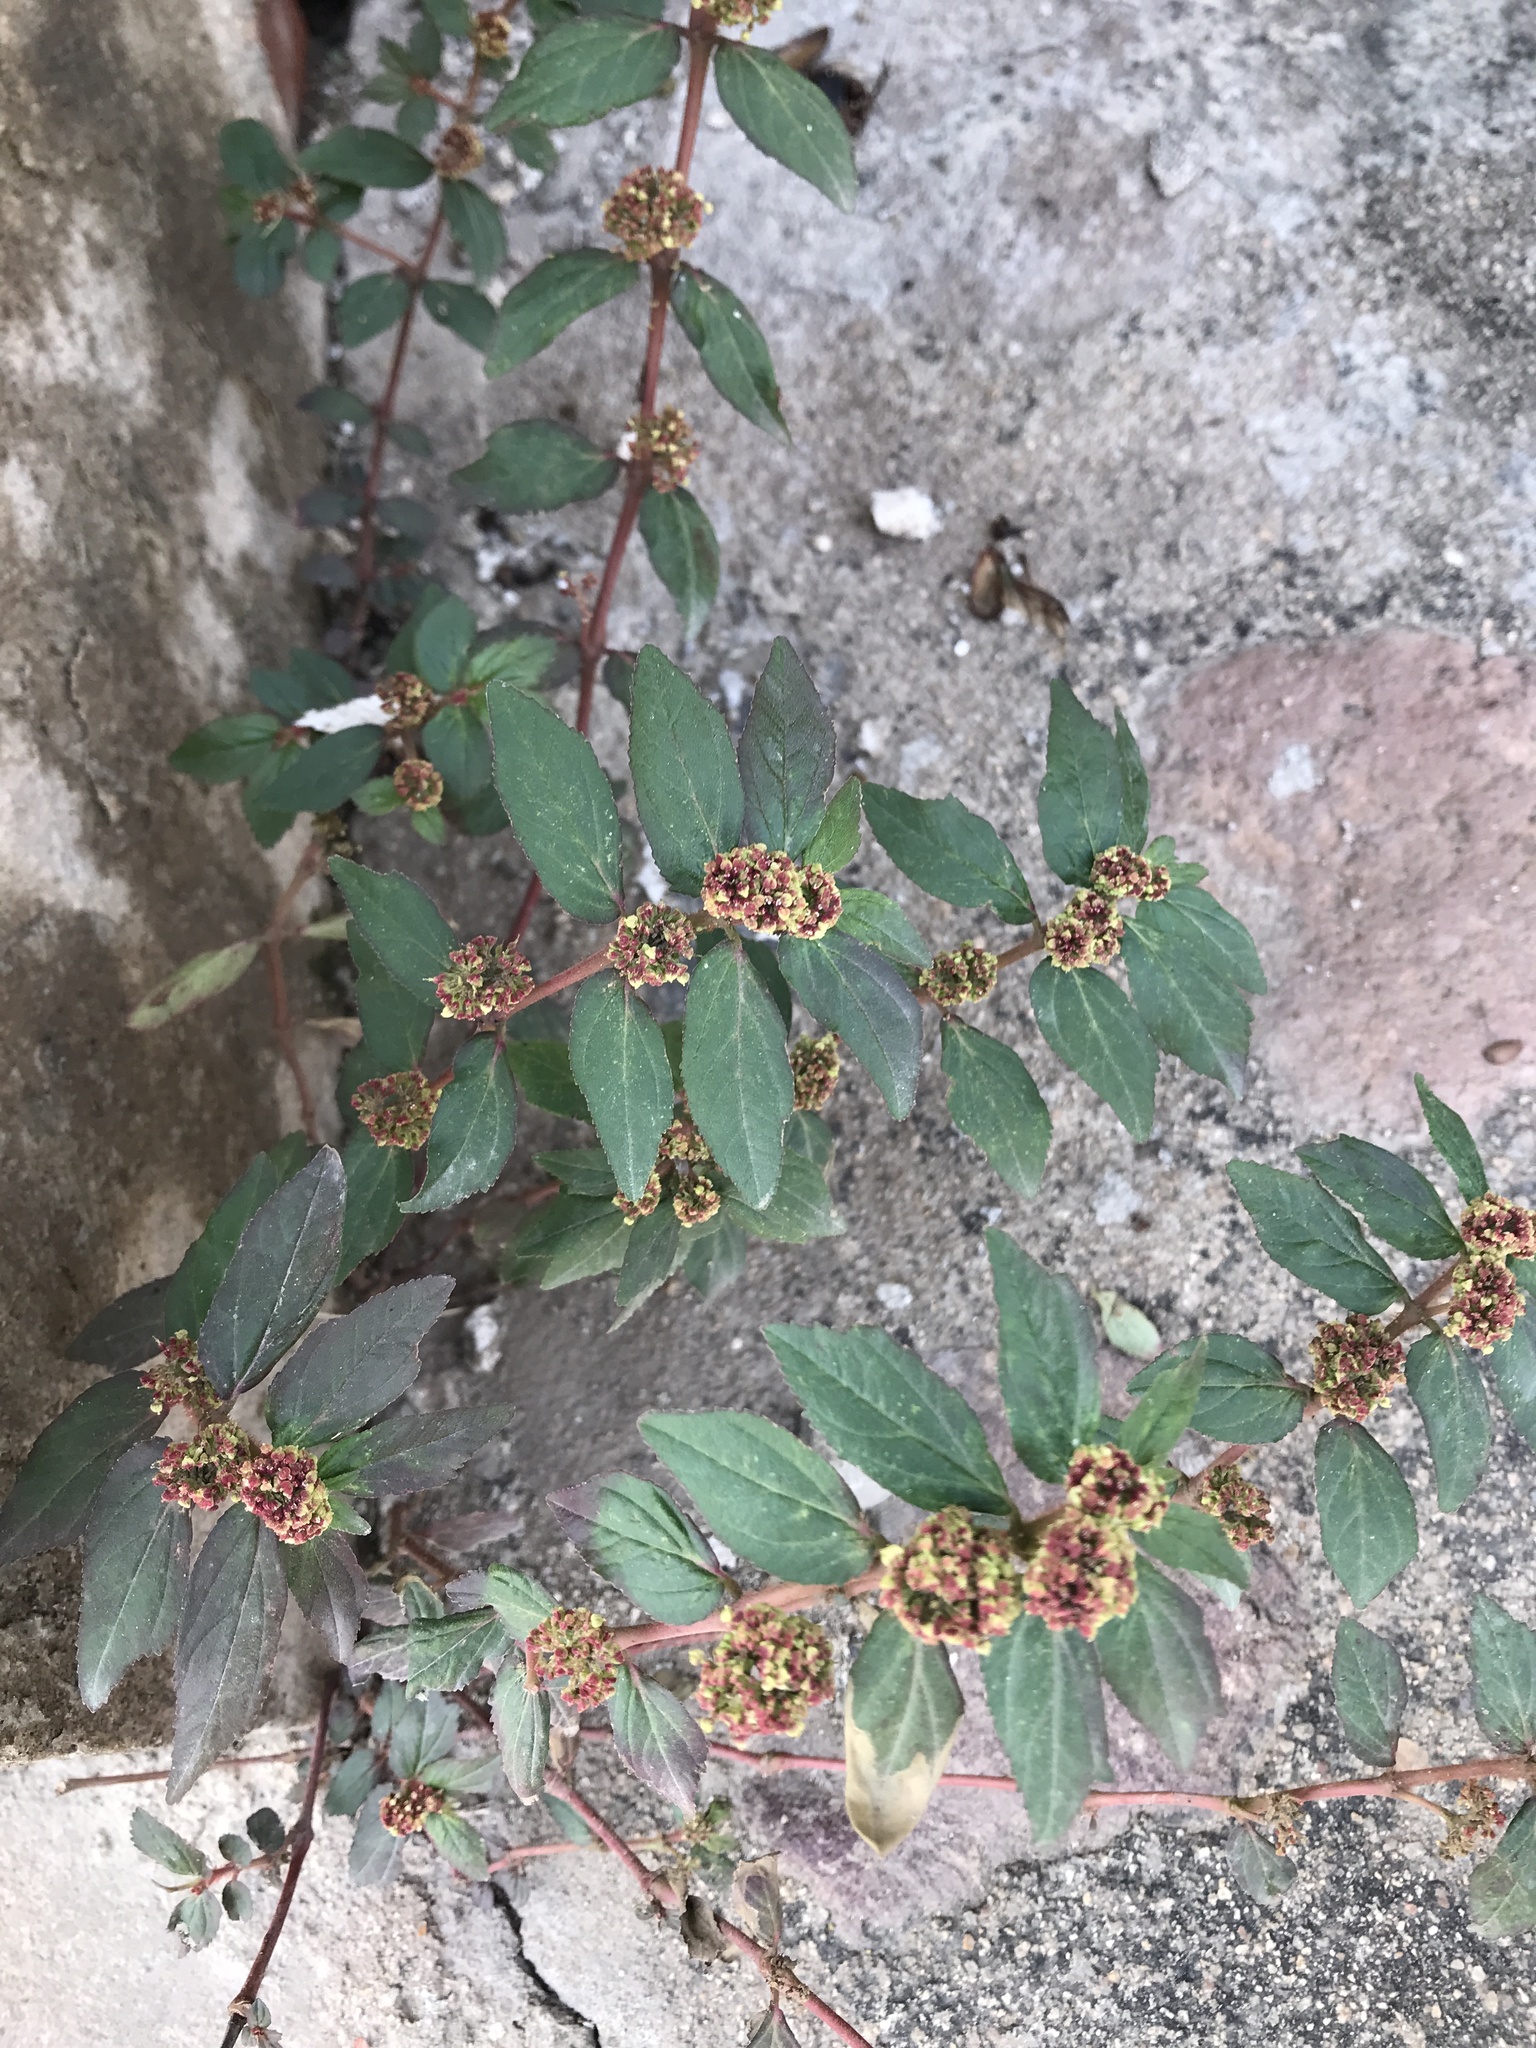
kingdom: Plantae
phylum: Tracheophyta
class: Magnoliopsida
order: Malpighiales
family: Euphorbiaceae
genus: Euphorbia
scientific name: Euphorbia hirta
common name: Pillpod sandmat
